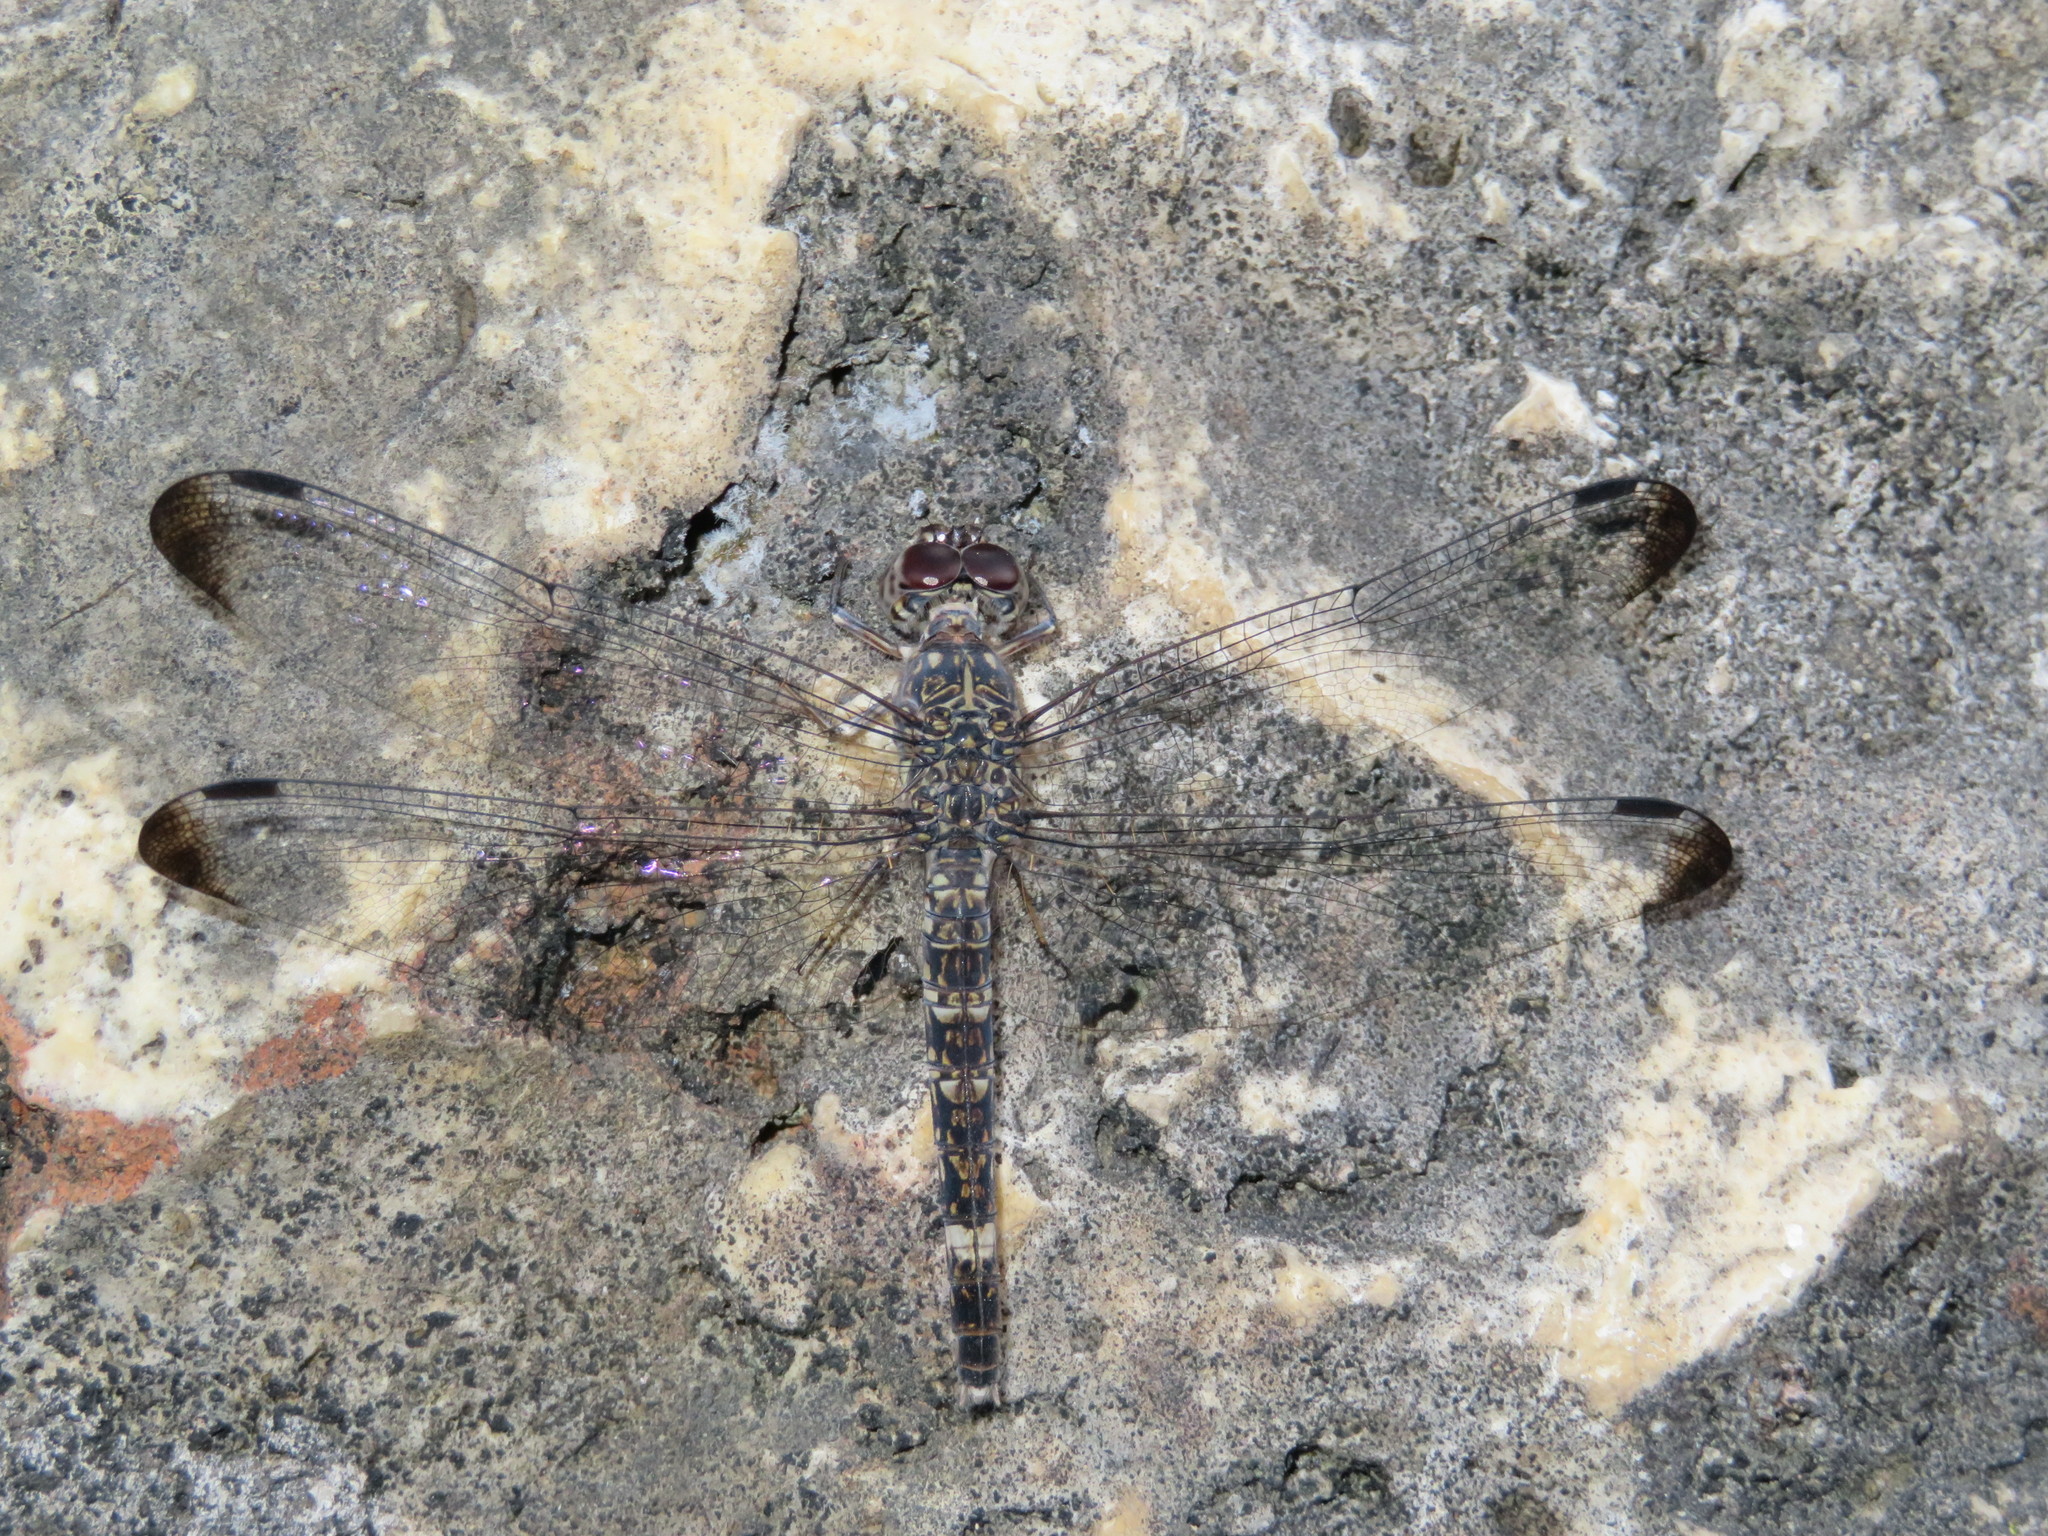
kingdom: Animalia
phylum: Arthropoda
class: Insecta
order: Odonata
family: Libellulidae
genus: Bradinopyga
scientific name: Bradinopyga cornuta
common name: Flecked wall-skimmer
